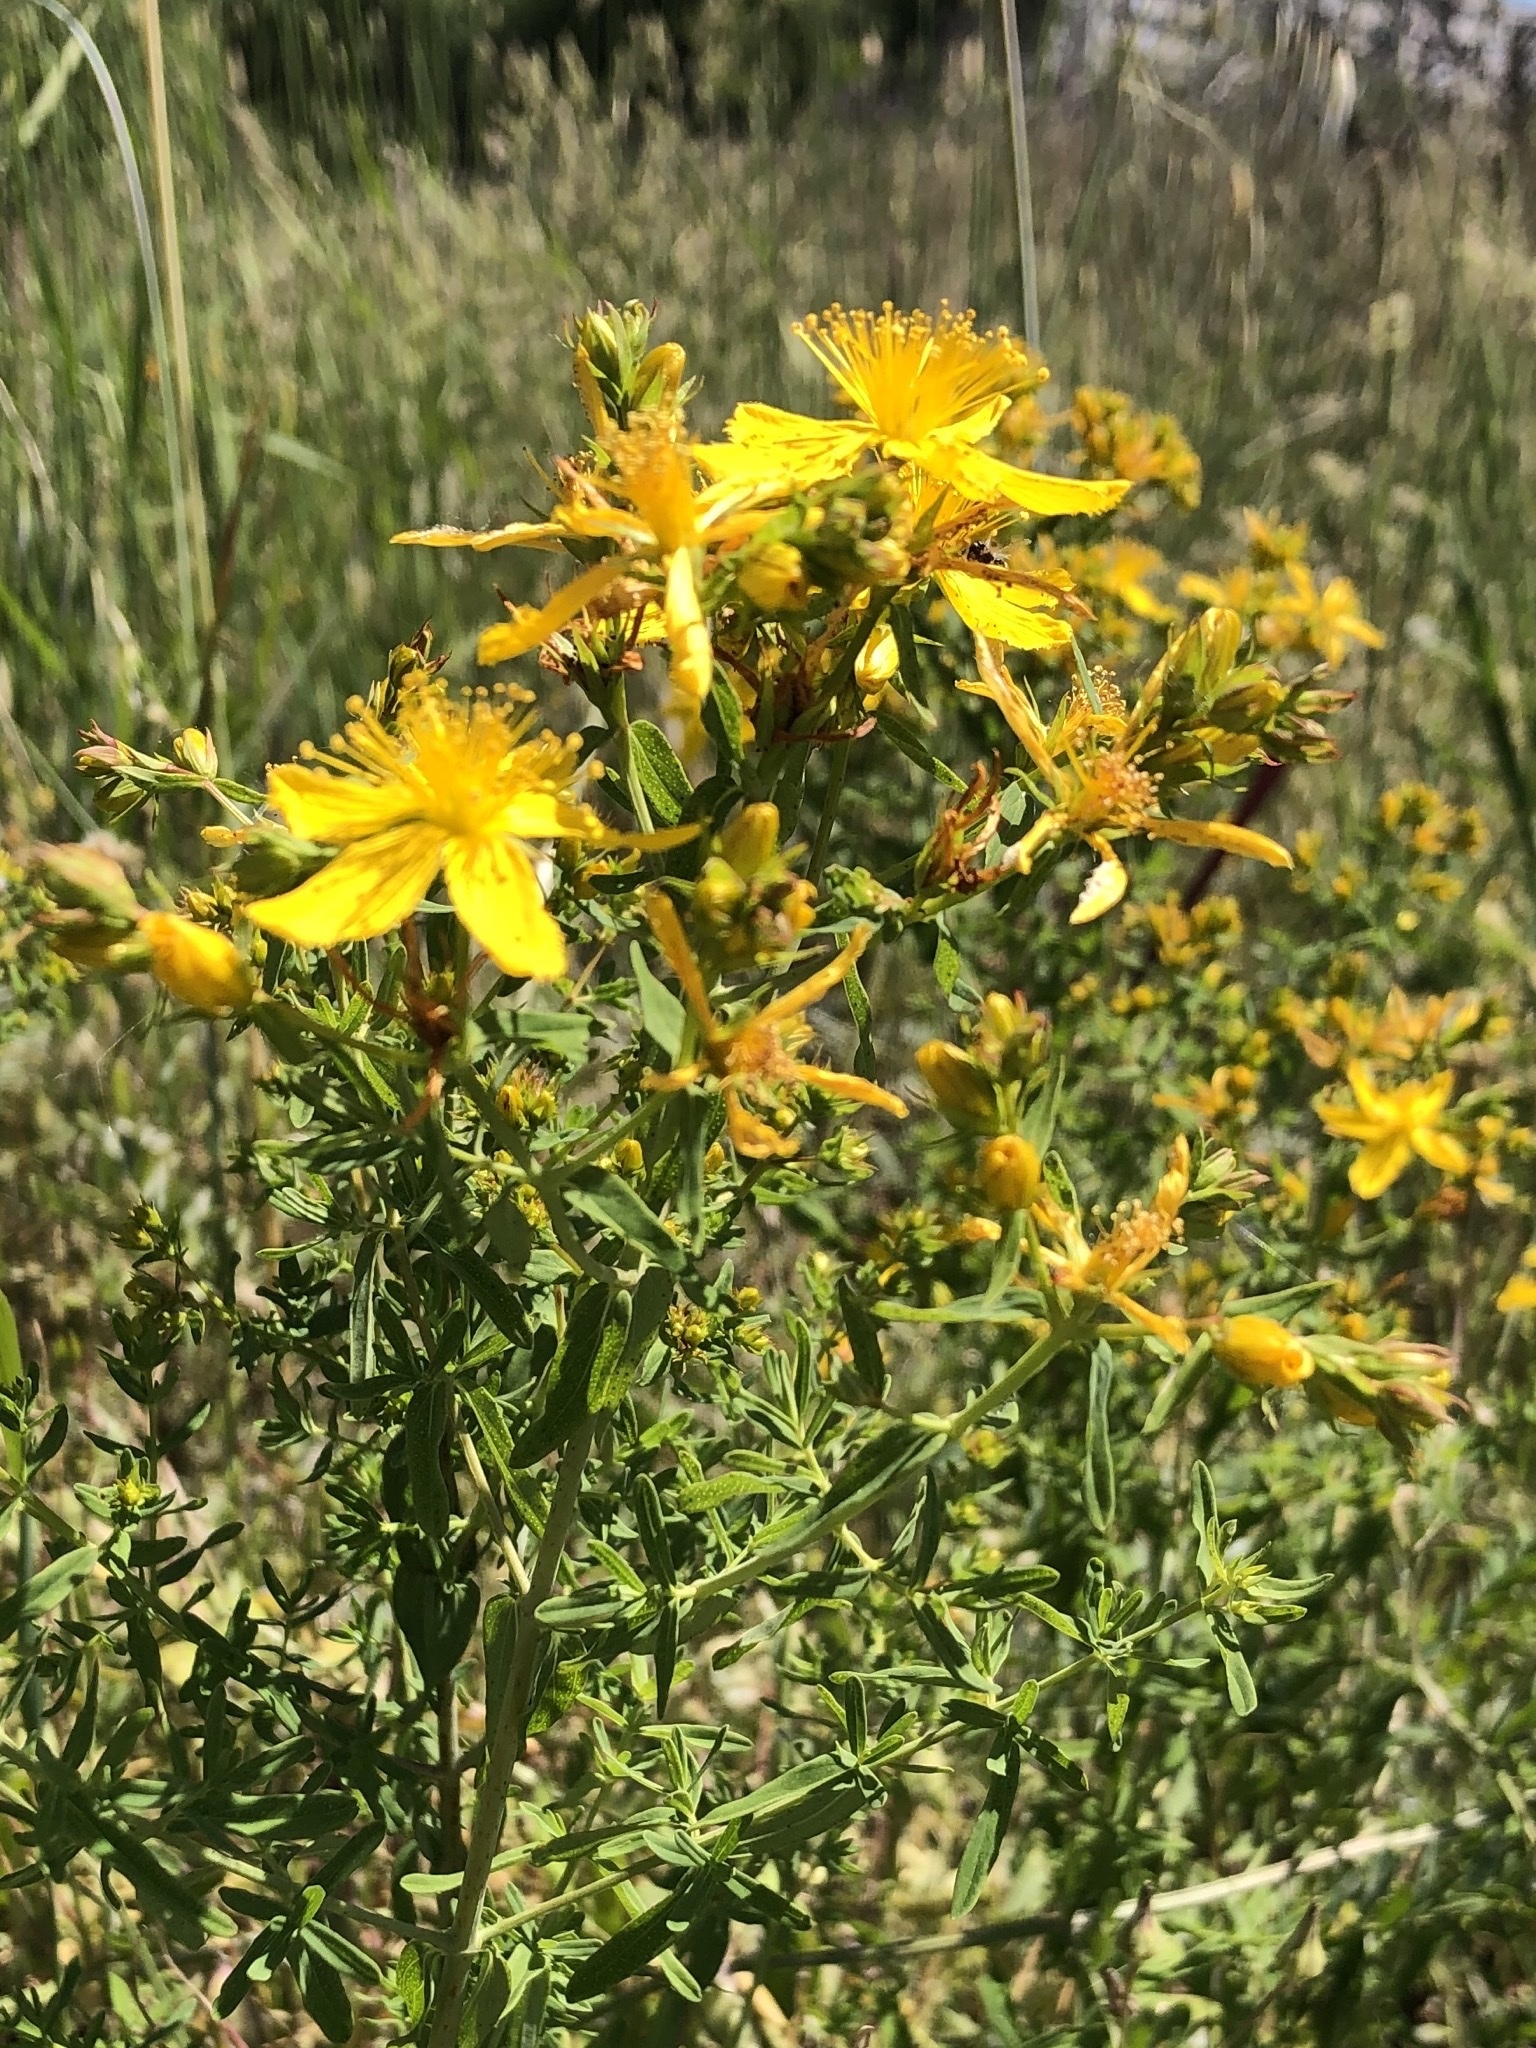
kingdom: Plantae
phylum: Tracheophyta
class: Magnoliopsida
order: Malpighiales
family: Hypericaceae
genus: Hypericum
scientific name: Hypericum perforatum
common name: Common st. johnswort
